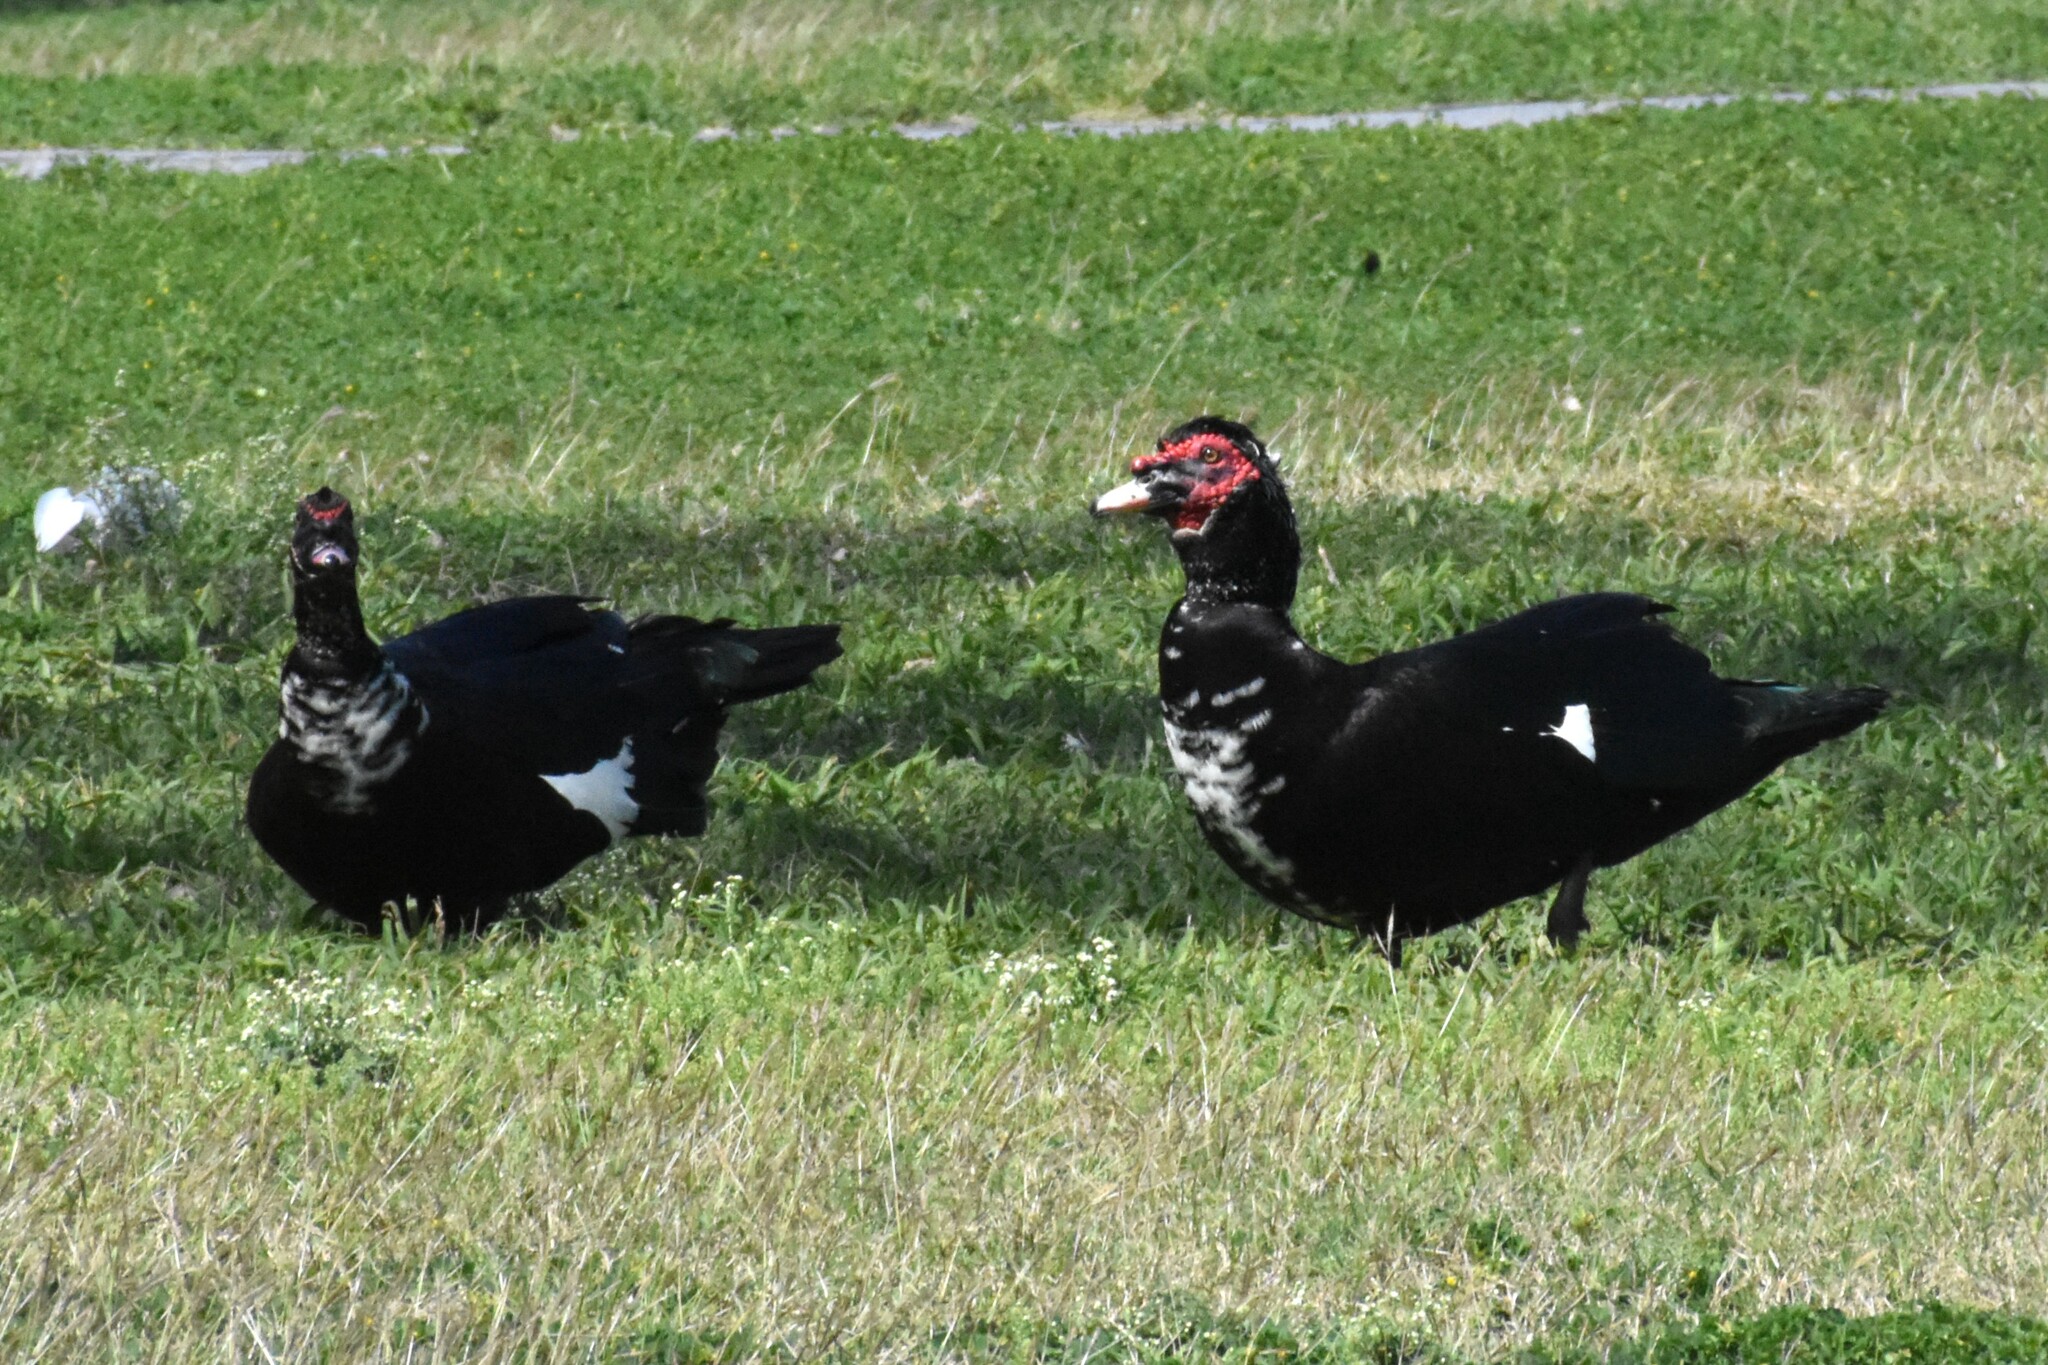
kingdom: Animalia
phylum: Chordata
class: Aves
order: Anseriformes
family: Anatidae
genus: Cairina
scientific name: Cairina moschata
